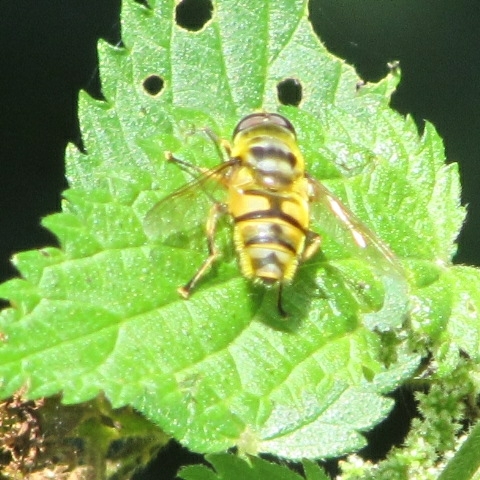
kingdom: Animalia
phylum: Arthropoda
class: Insecta
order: Diptera
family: Syrphidae
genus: Myathropa
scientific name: Myathropa florea
